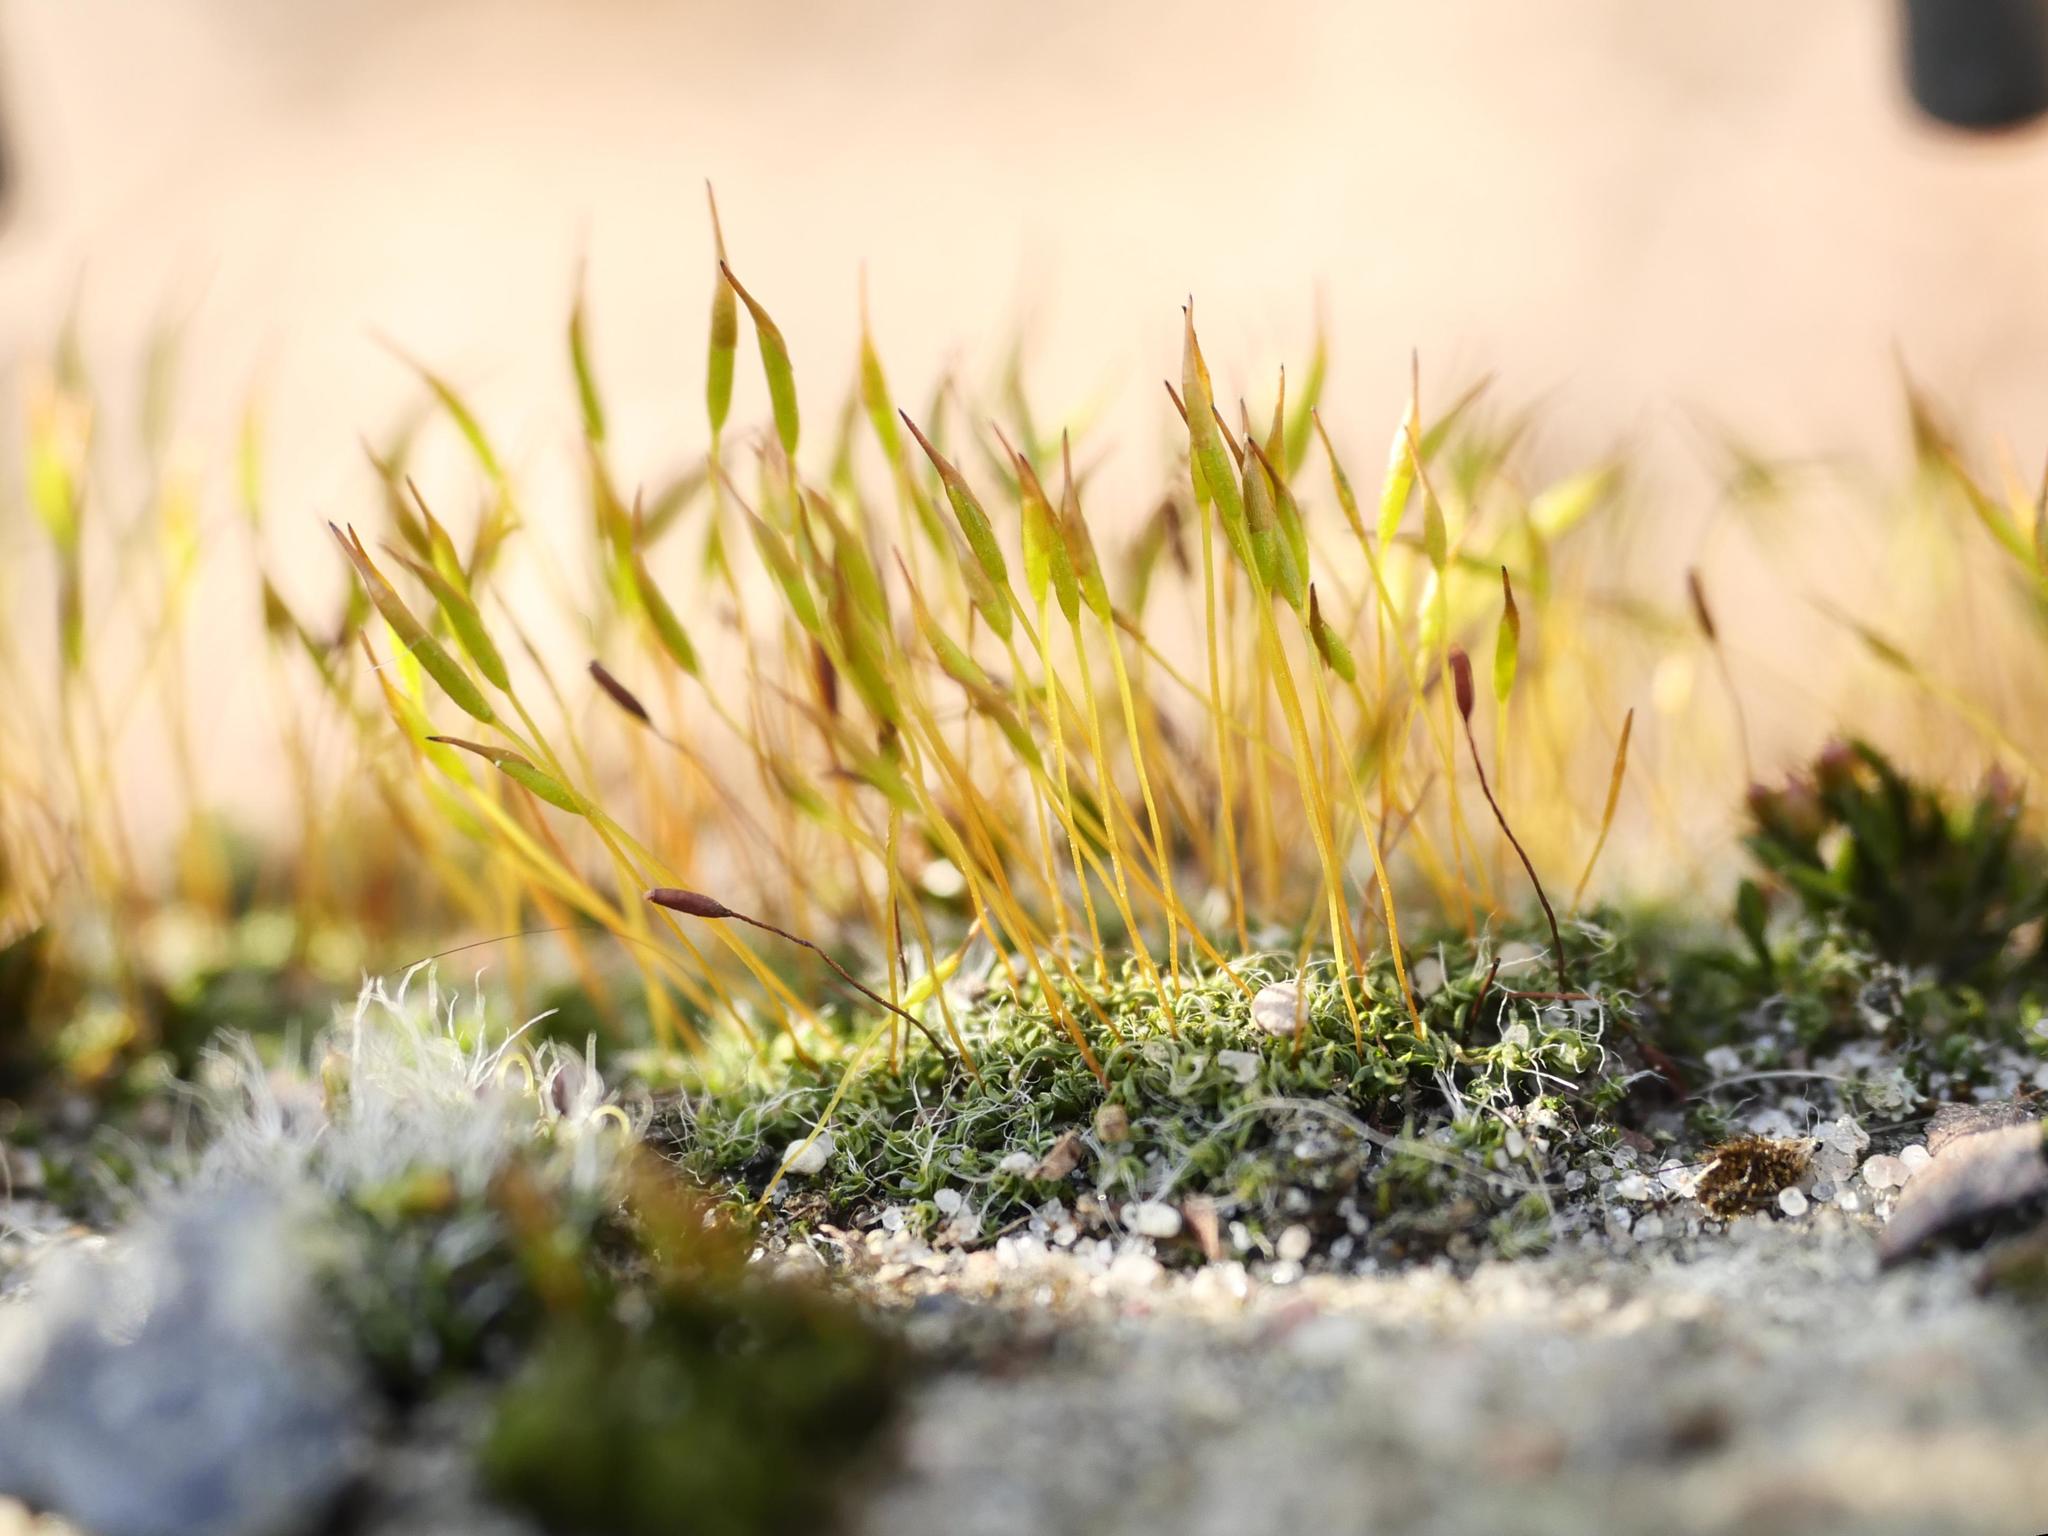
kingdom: Plantae
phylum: Bryophyta
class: Bryopsida
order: Pottiales
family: Pottiaceae
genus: Tortula
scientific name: Tortula muralis
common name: Wall screw-moss
